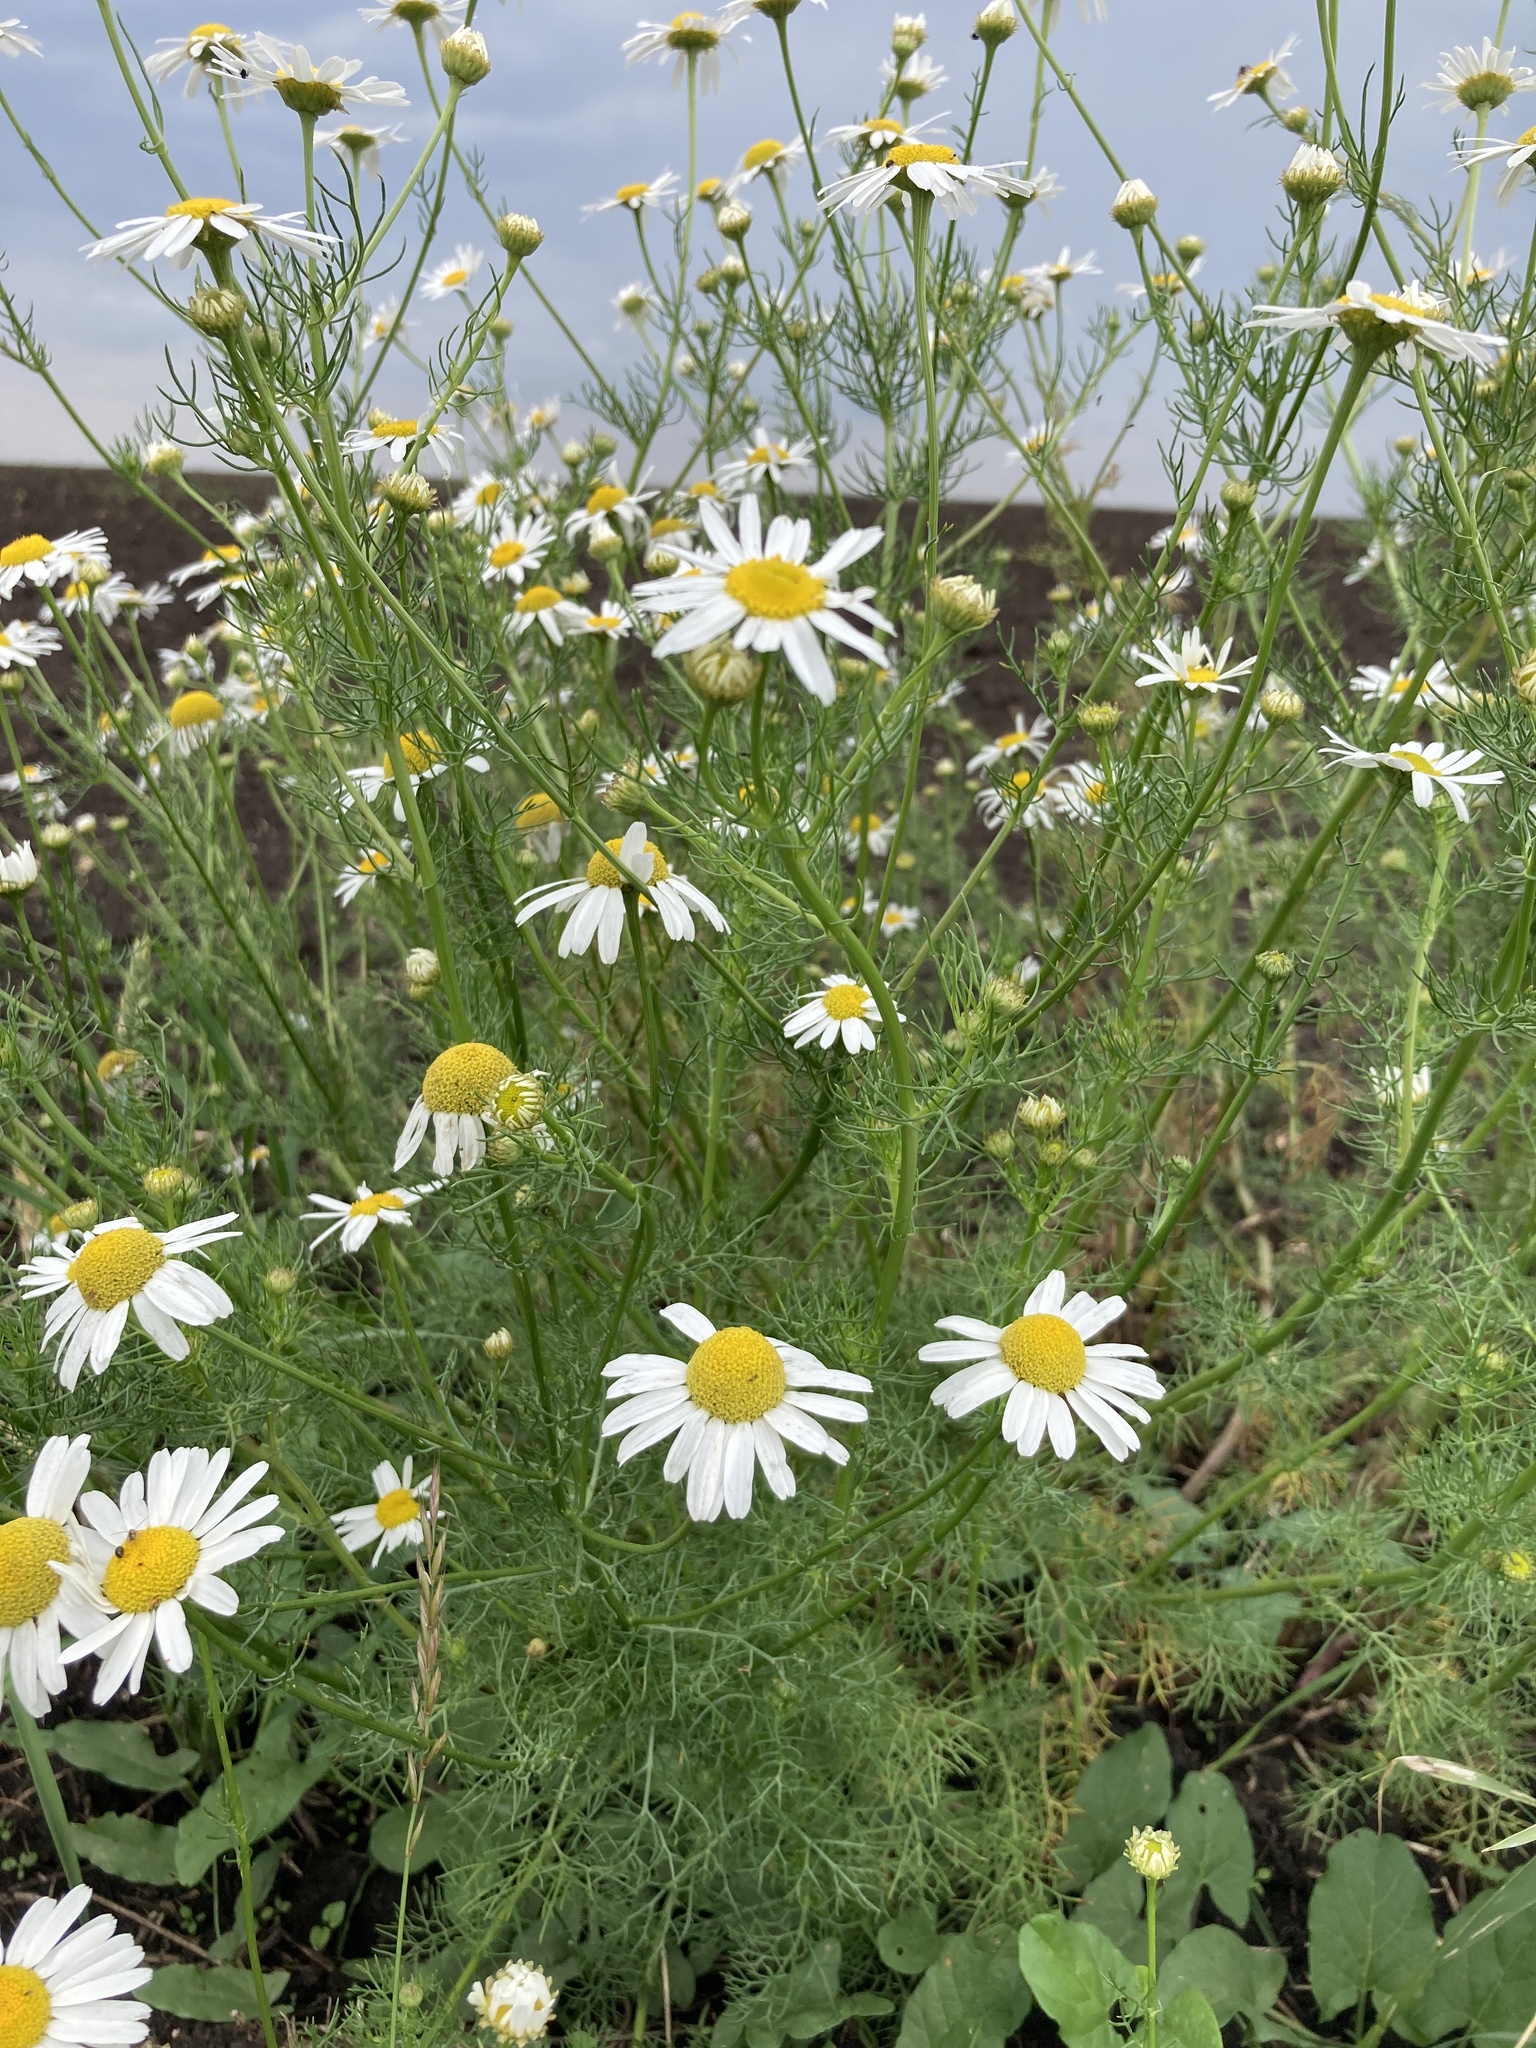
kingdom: Plantae
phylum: Tracheophyta
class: Magnoliopsida
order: Asterales
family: Asteraceae
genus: Tripleurospermum
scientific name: Tripleurospermum inodorum
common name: Scentless mayweed
